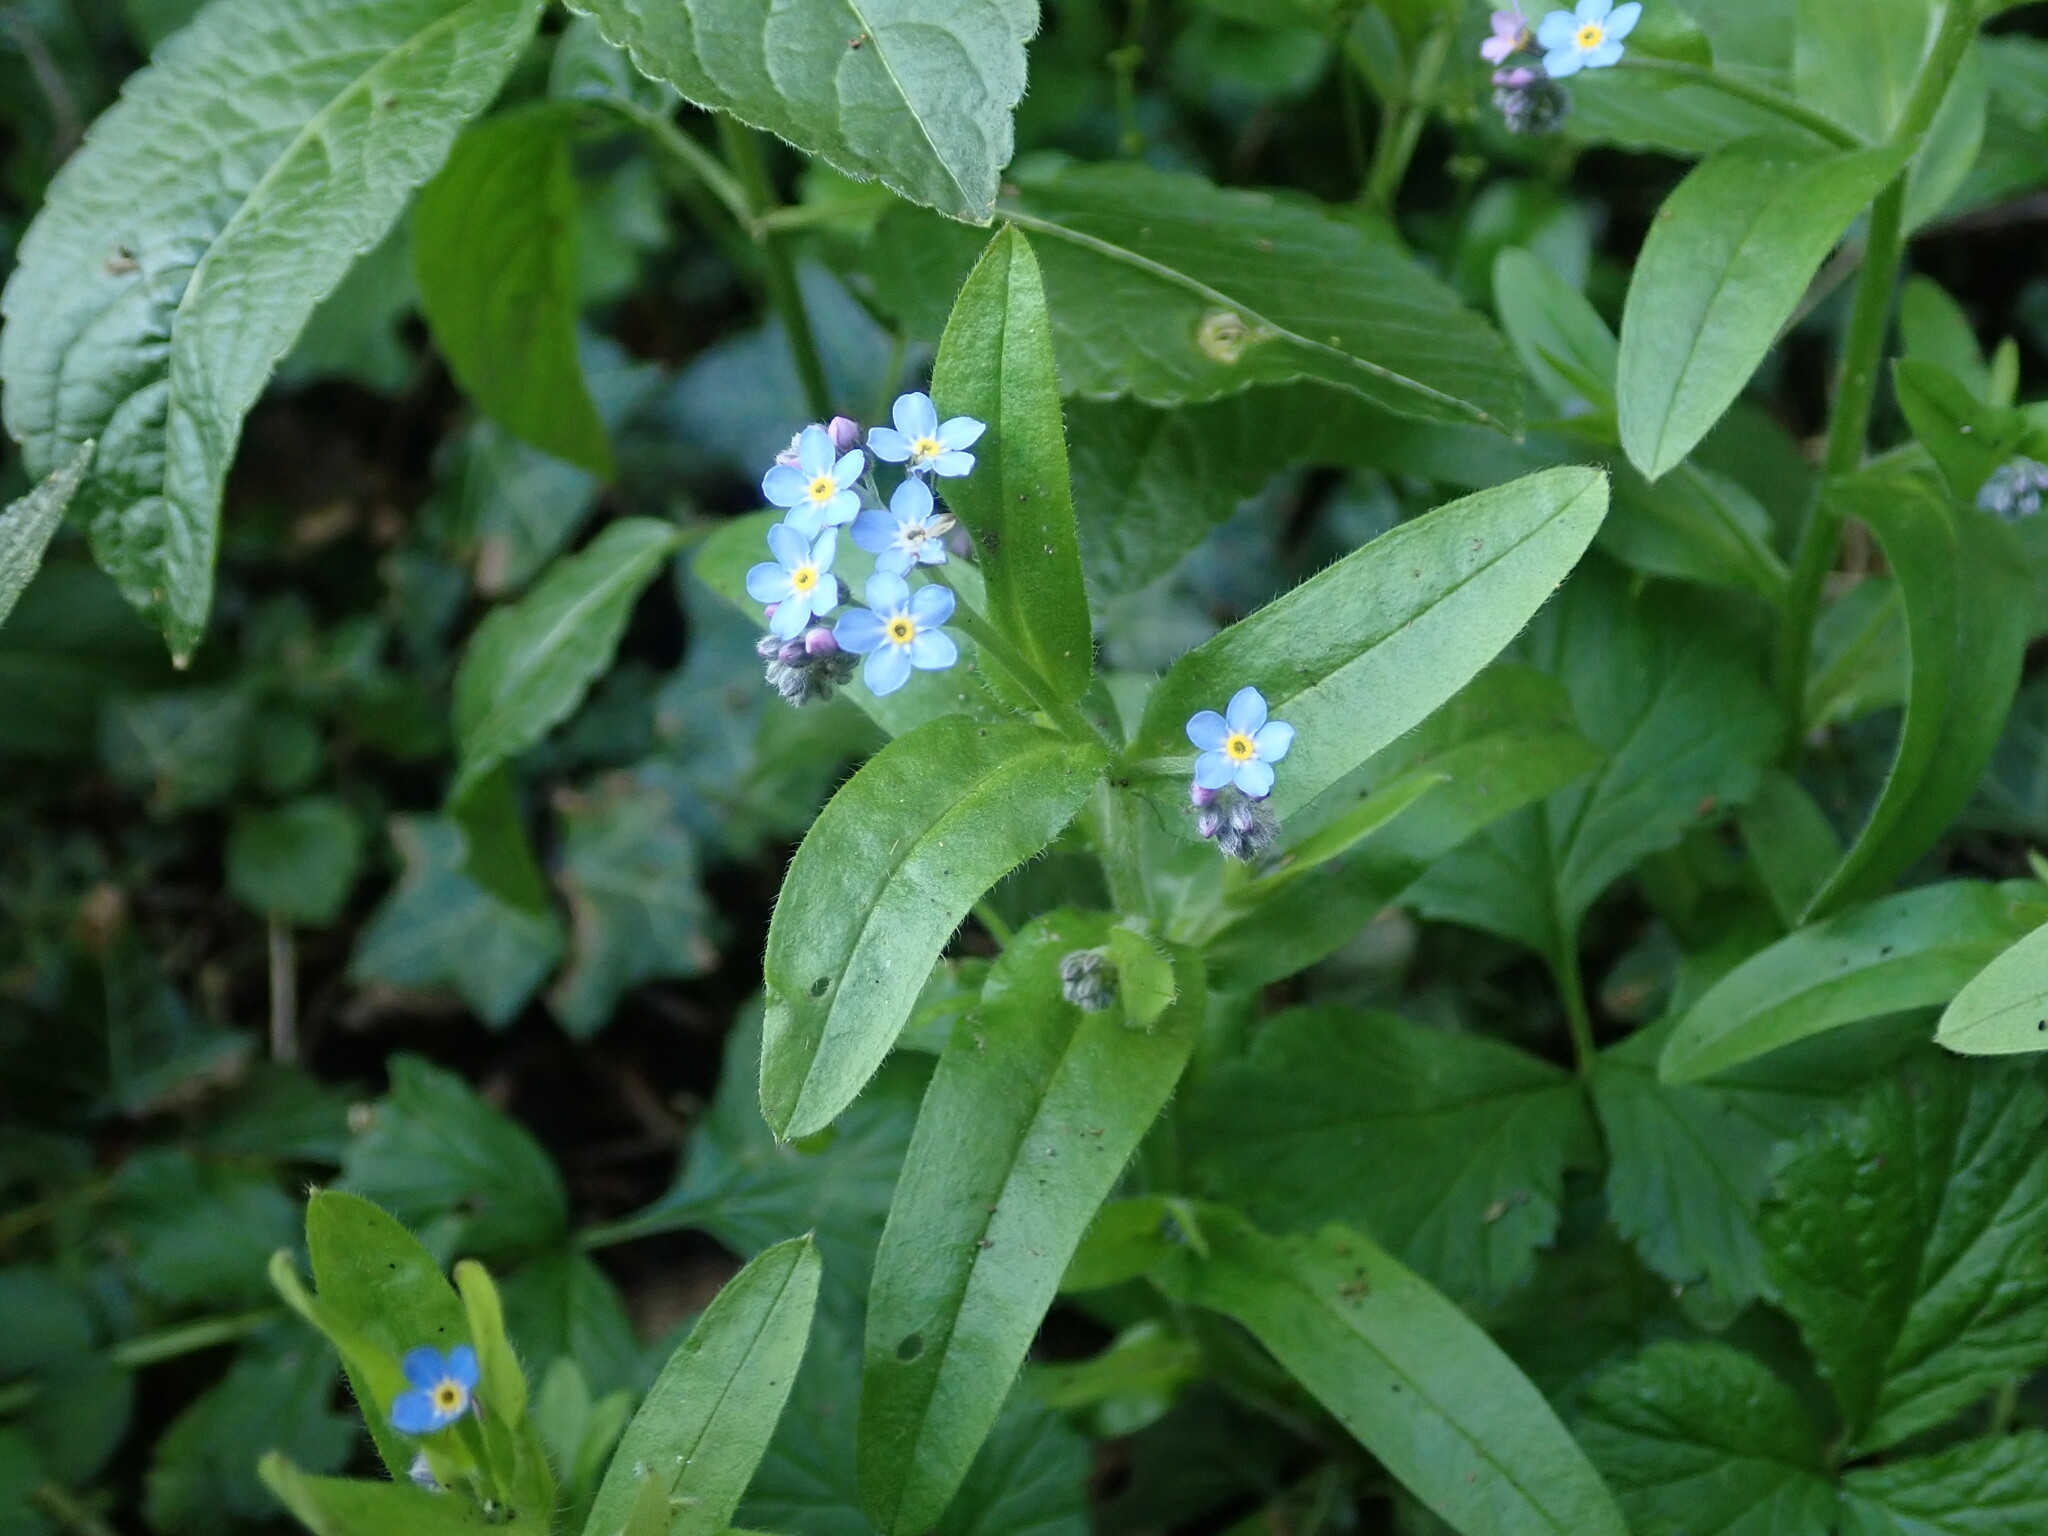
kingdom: Plantae
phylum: Tracheophyta
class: Magnoliopsida
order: Boraginales
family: Boraginaceae
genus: Myosotis
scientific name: Myosotis sylvatica
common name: Wood forget-me-not
